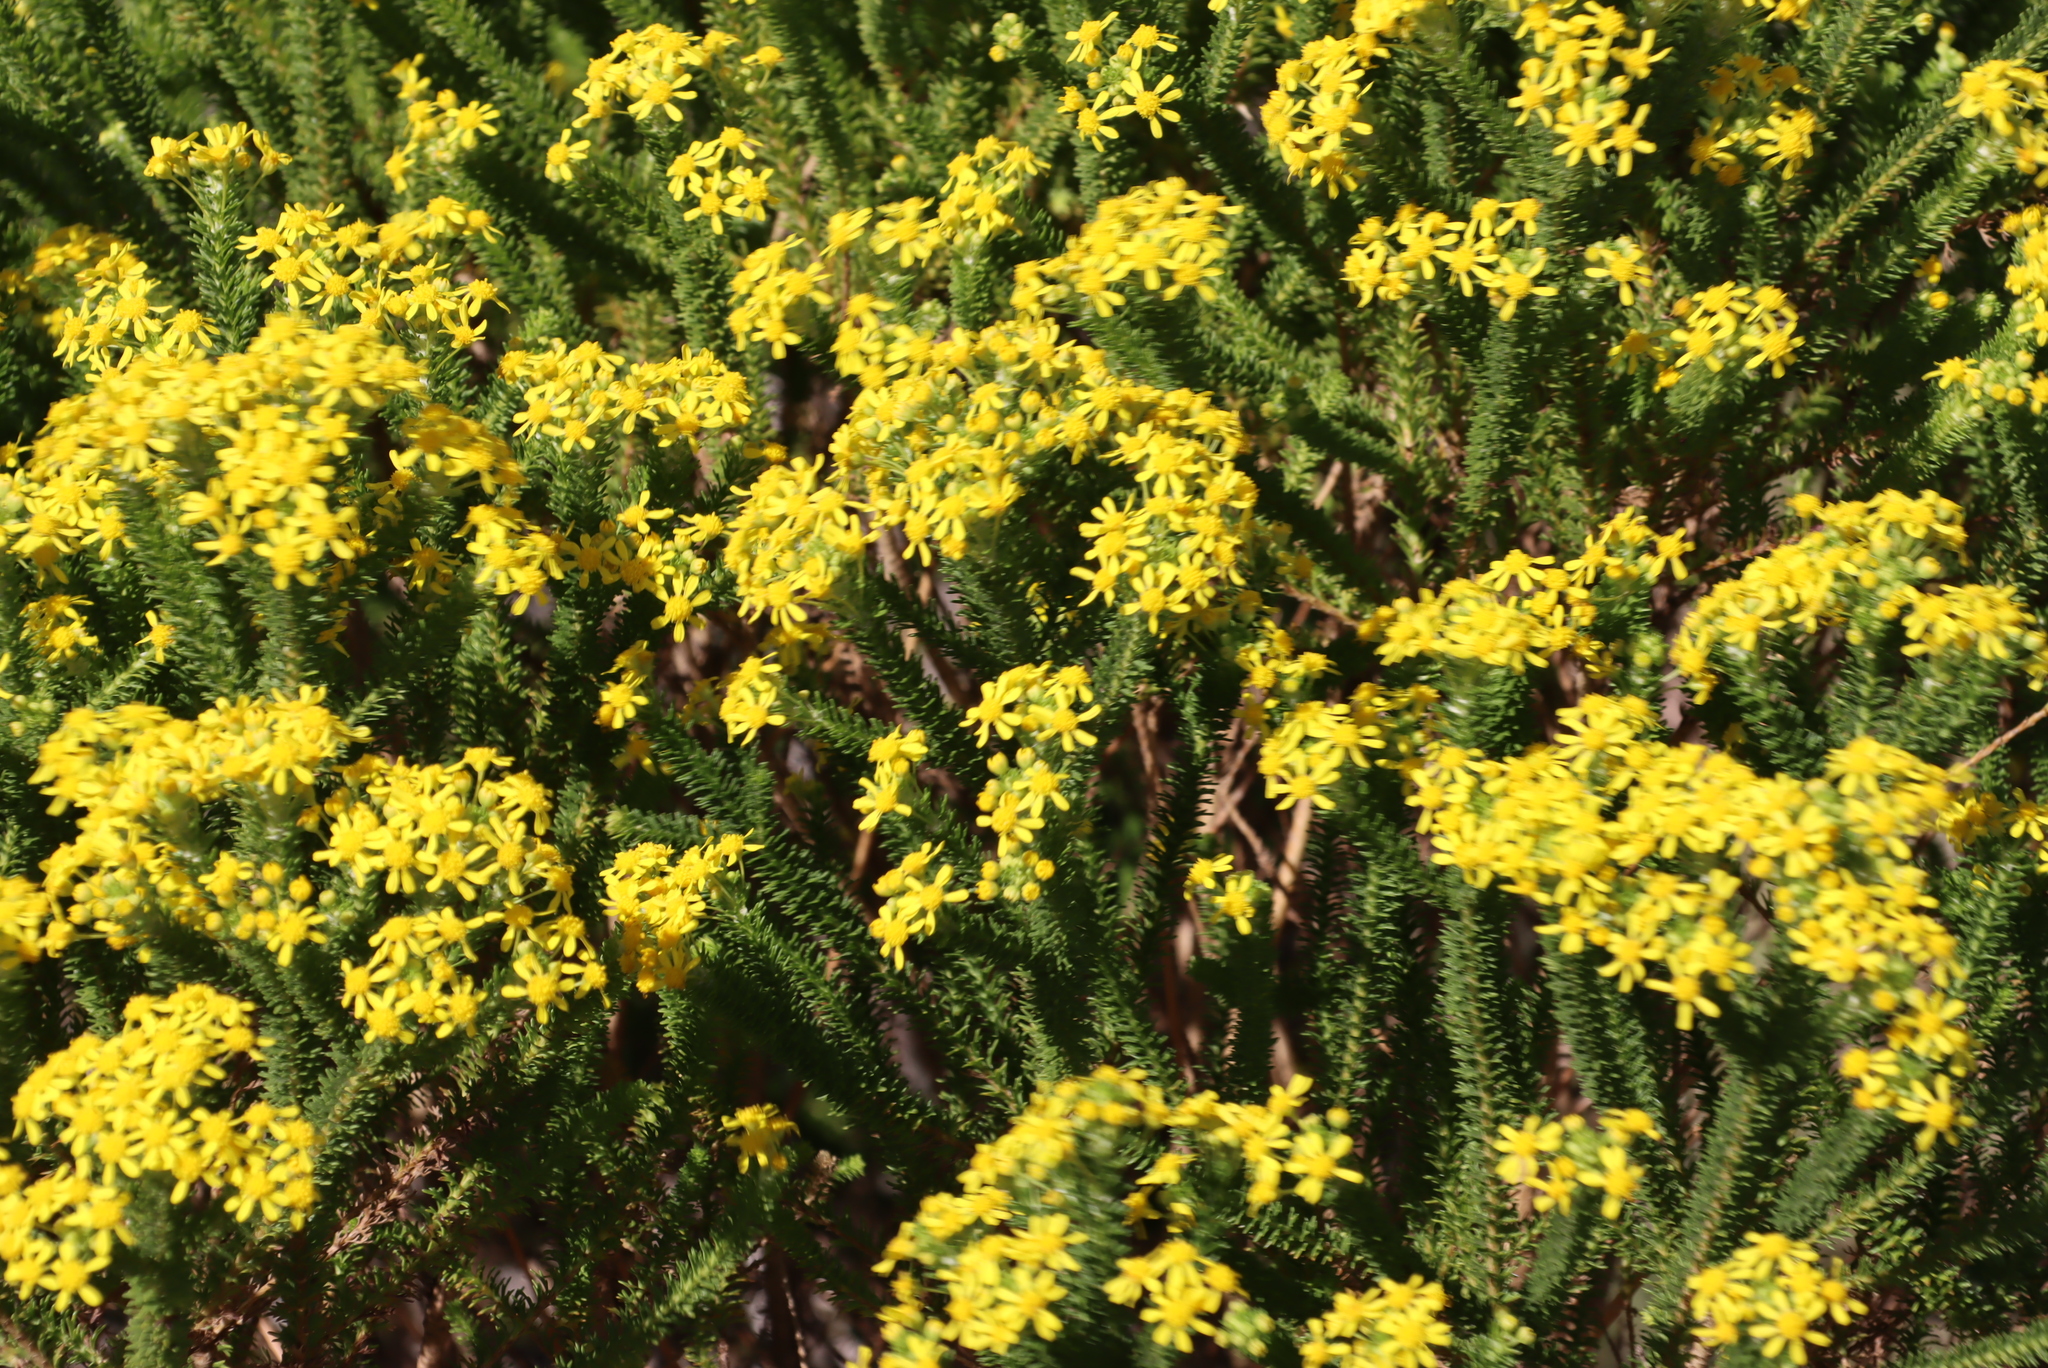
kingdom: Plantae
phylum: Tracheophyta
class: Magnoliopsida
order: Asterales
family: Asteraceae
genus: Euryops
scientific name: Euryops virgineus
